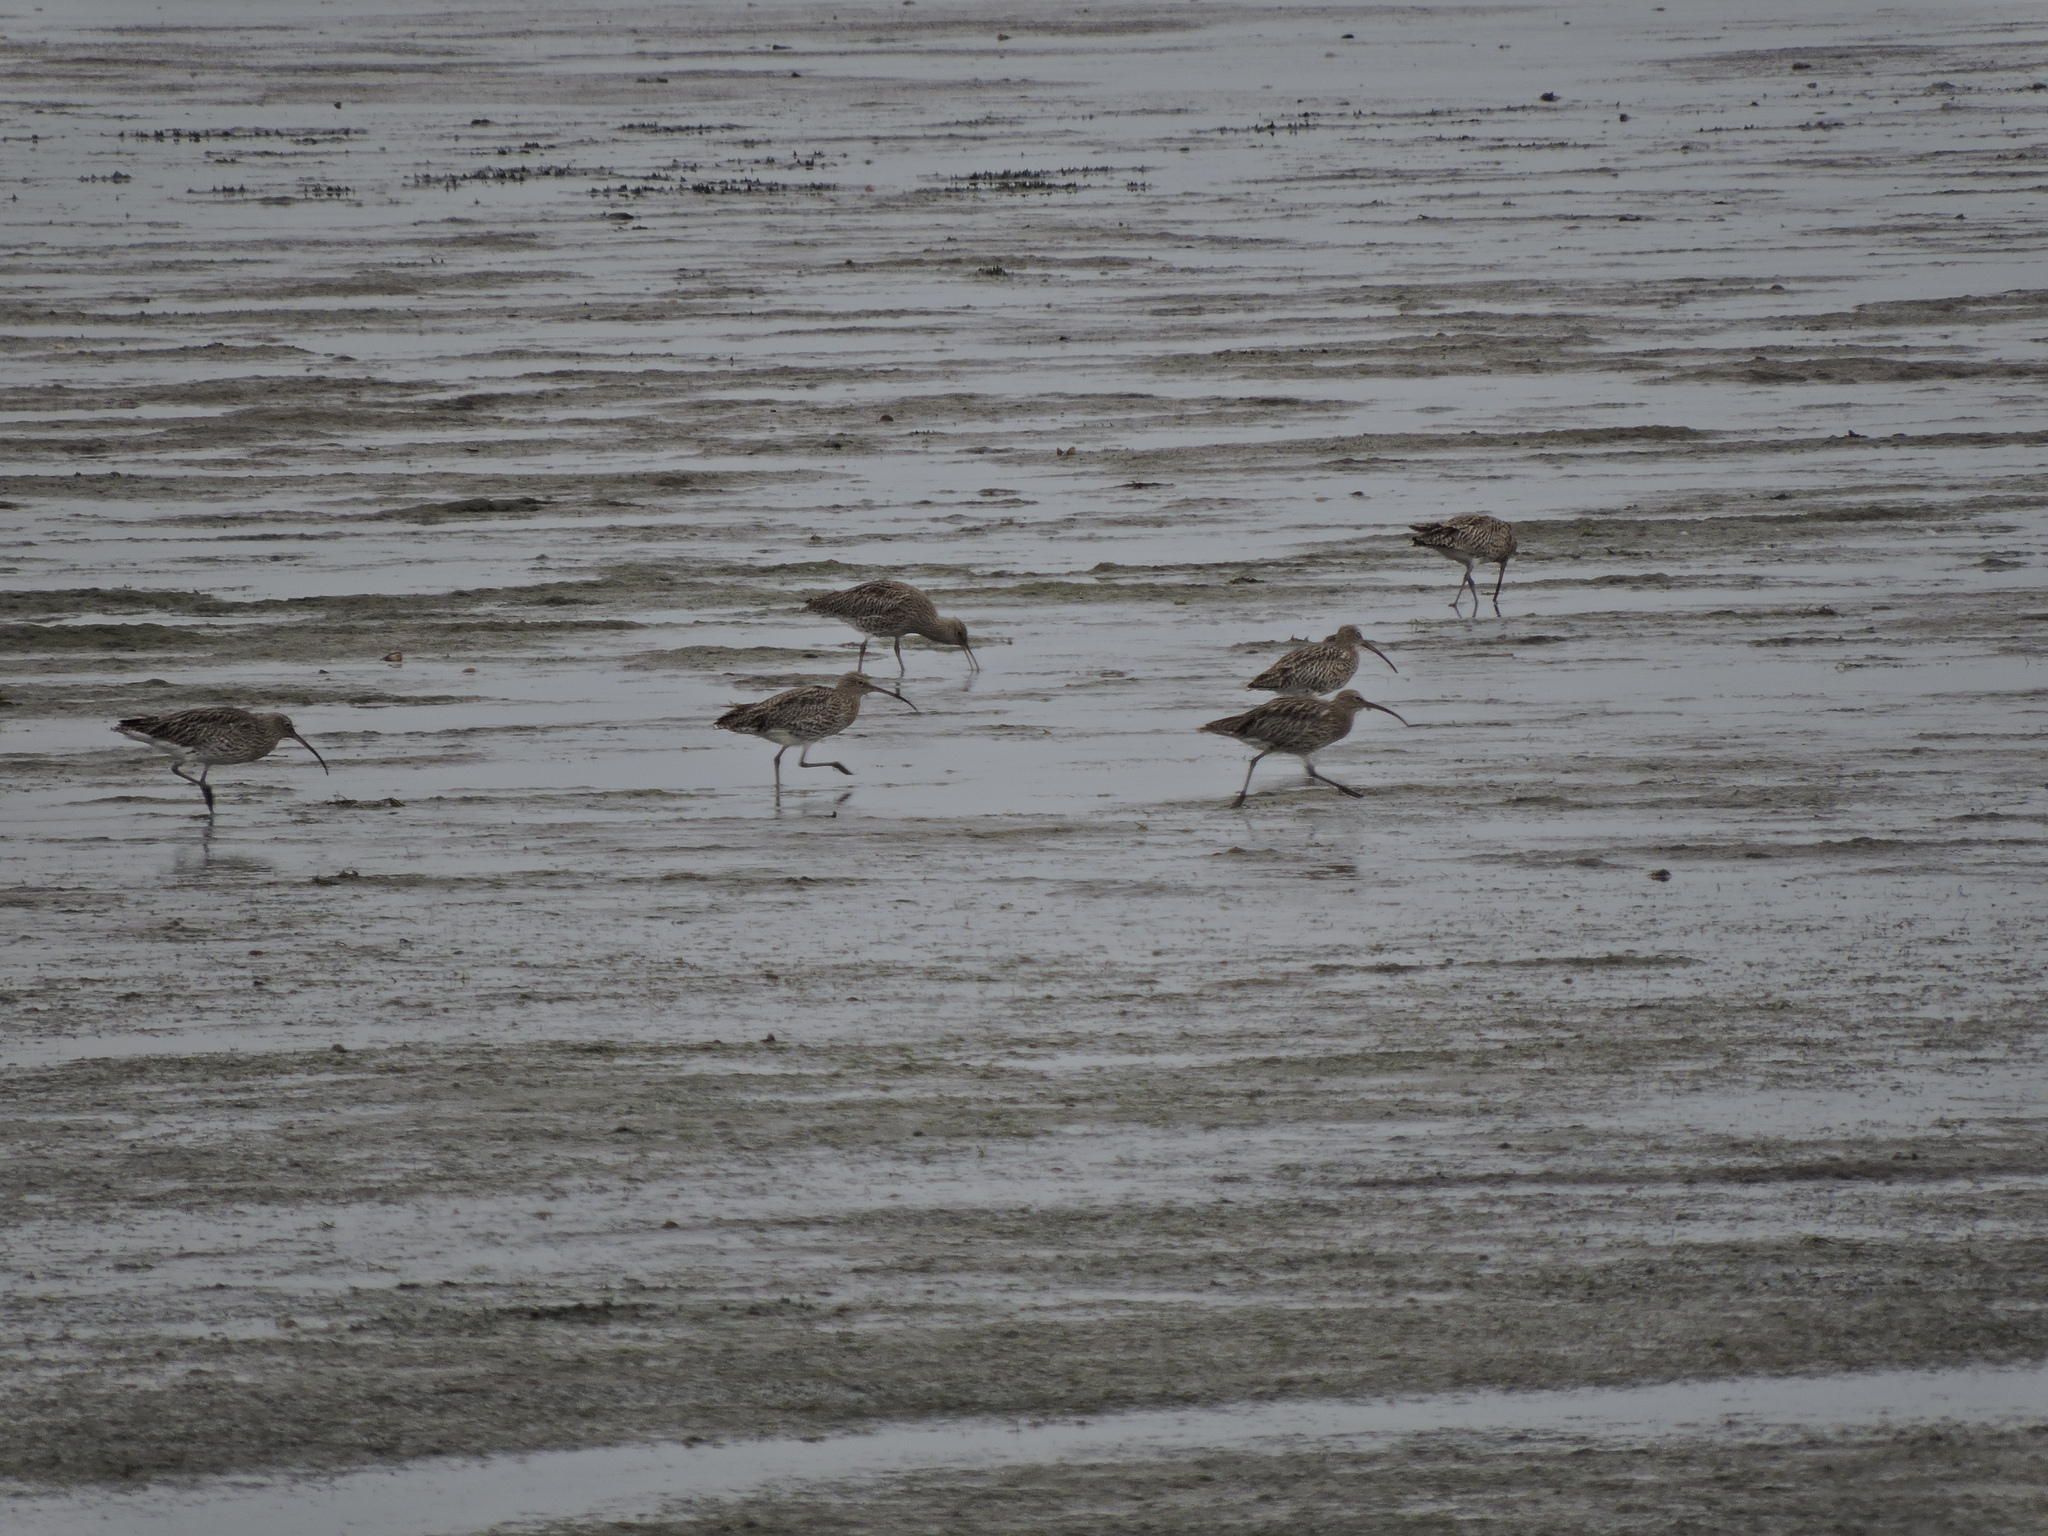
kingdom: Animalia
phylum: Chordata
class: Aves
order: Charadriiformes
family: Scolopacidae
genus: Numenius
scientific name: Numenius arquata
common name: Eurasian curlew
